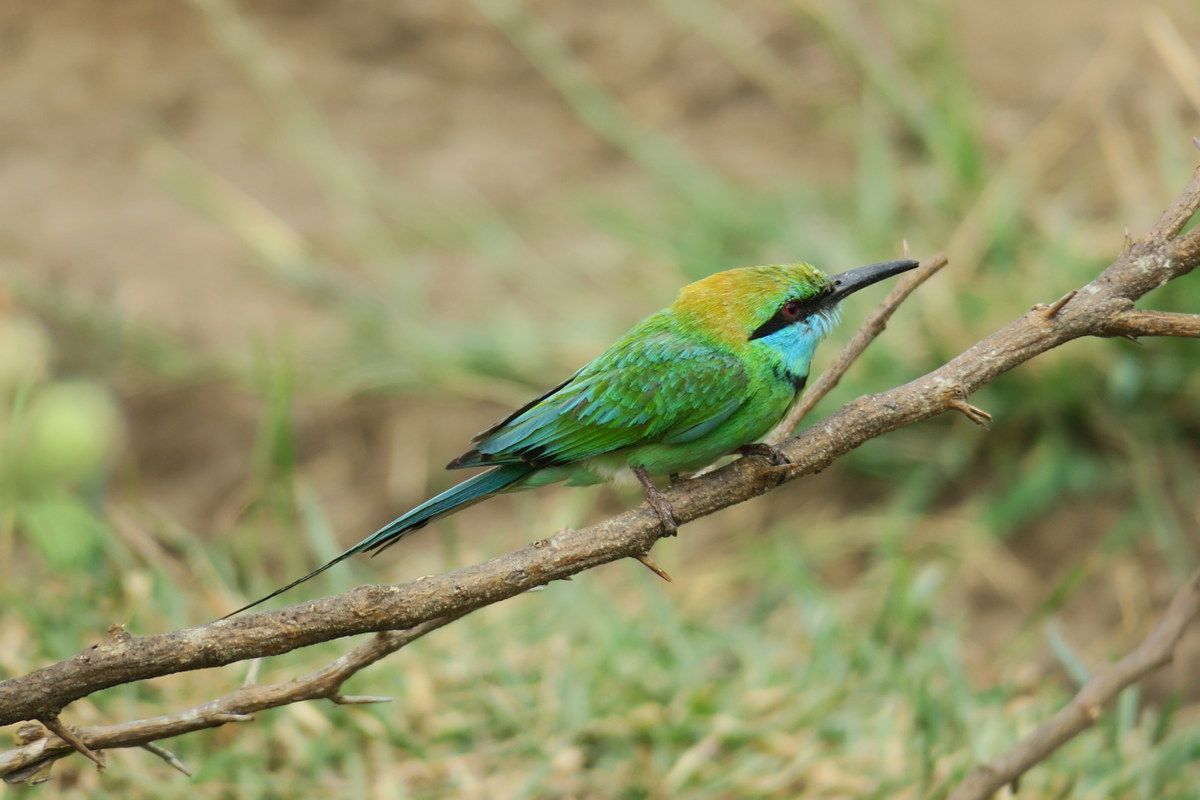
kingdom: Animalia
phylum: Chordata
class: Aves
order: Coraciiformes
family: Meropidae
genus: Merops
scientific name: Merops orientalis
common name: Green bee-eater
